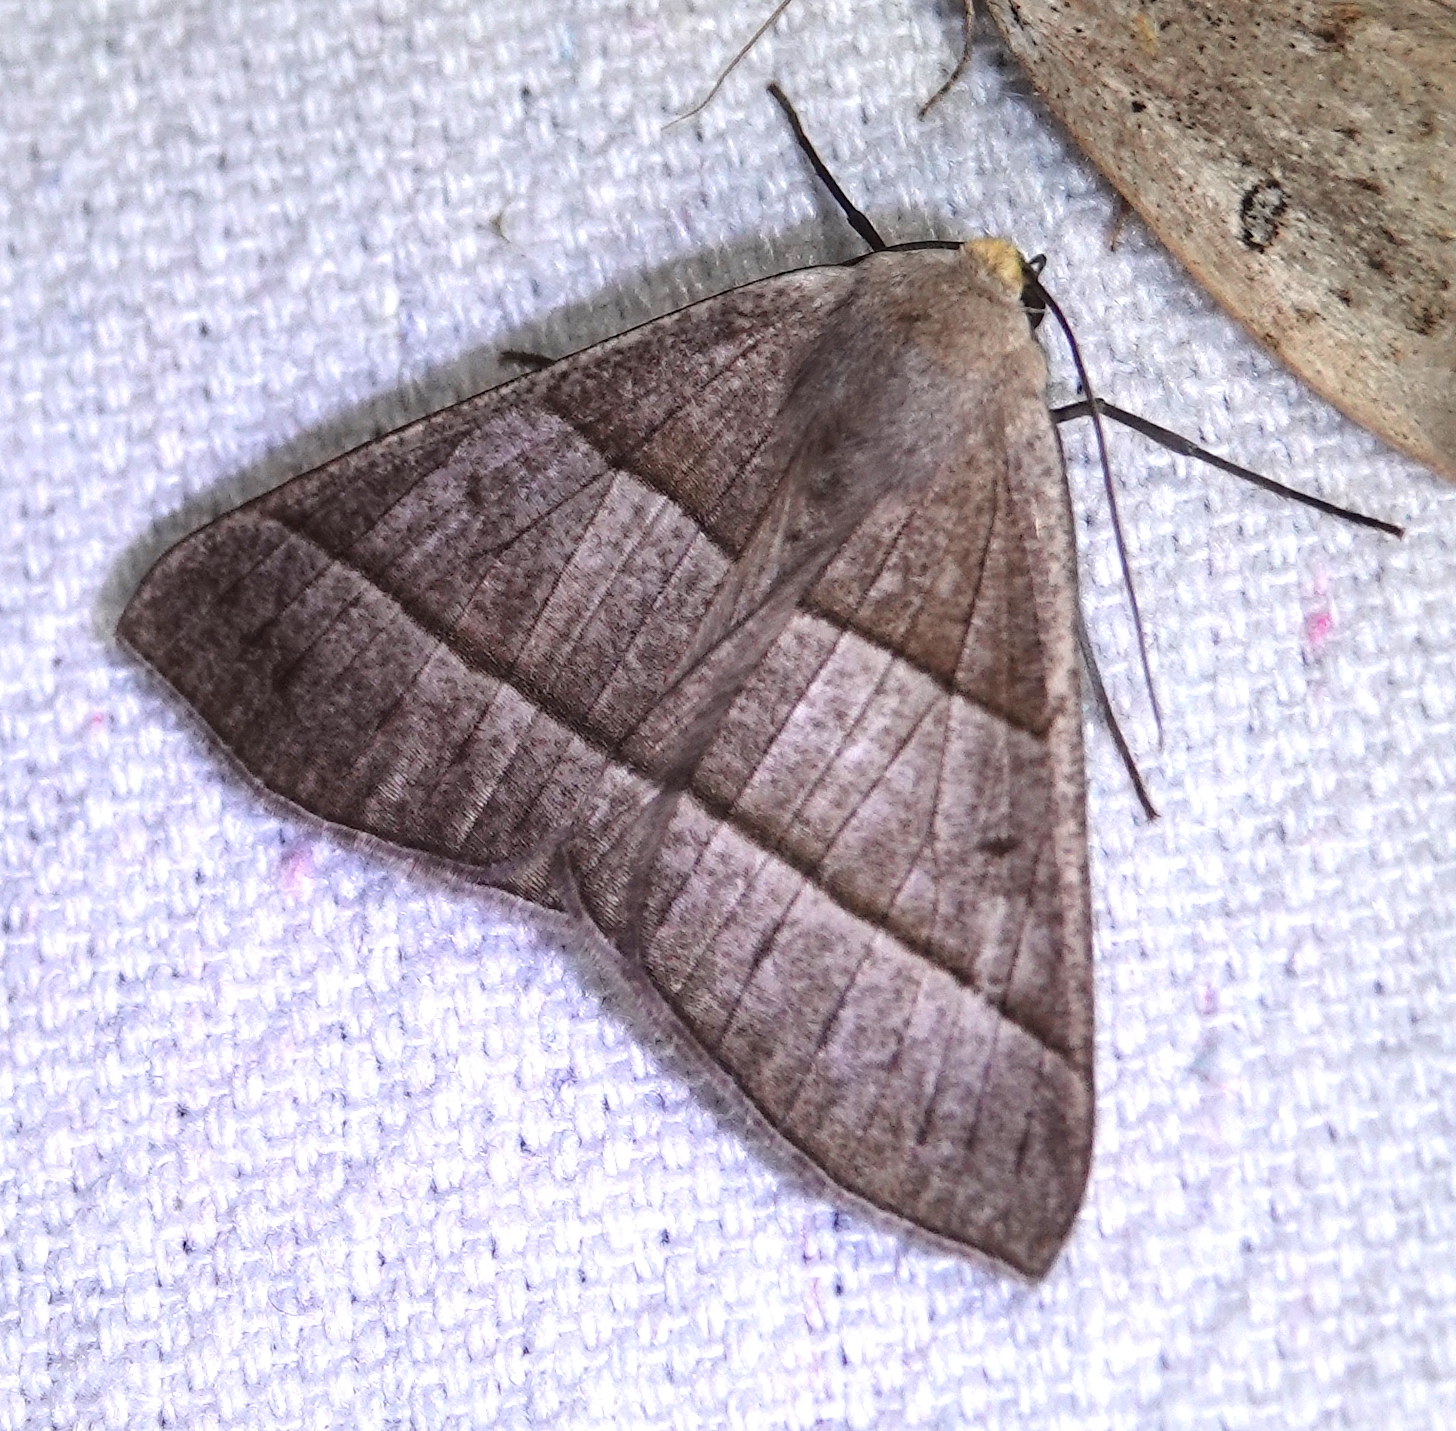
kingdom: Animalia
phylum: Arthropoda
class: Insecta
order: Lepidoptera
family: Geometridae
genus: Cosmophyga
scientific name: Cosmophyga privataria
